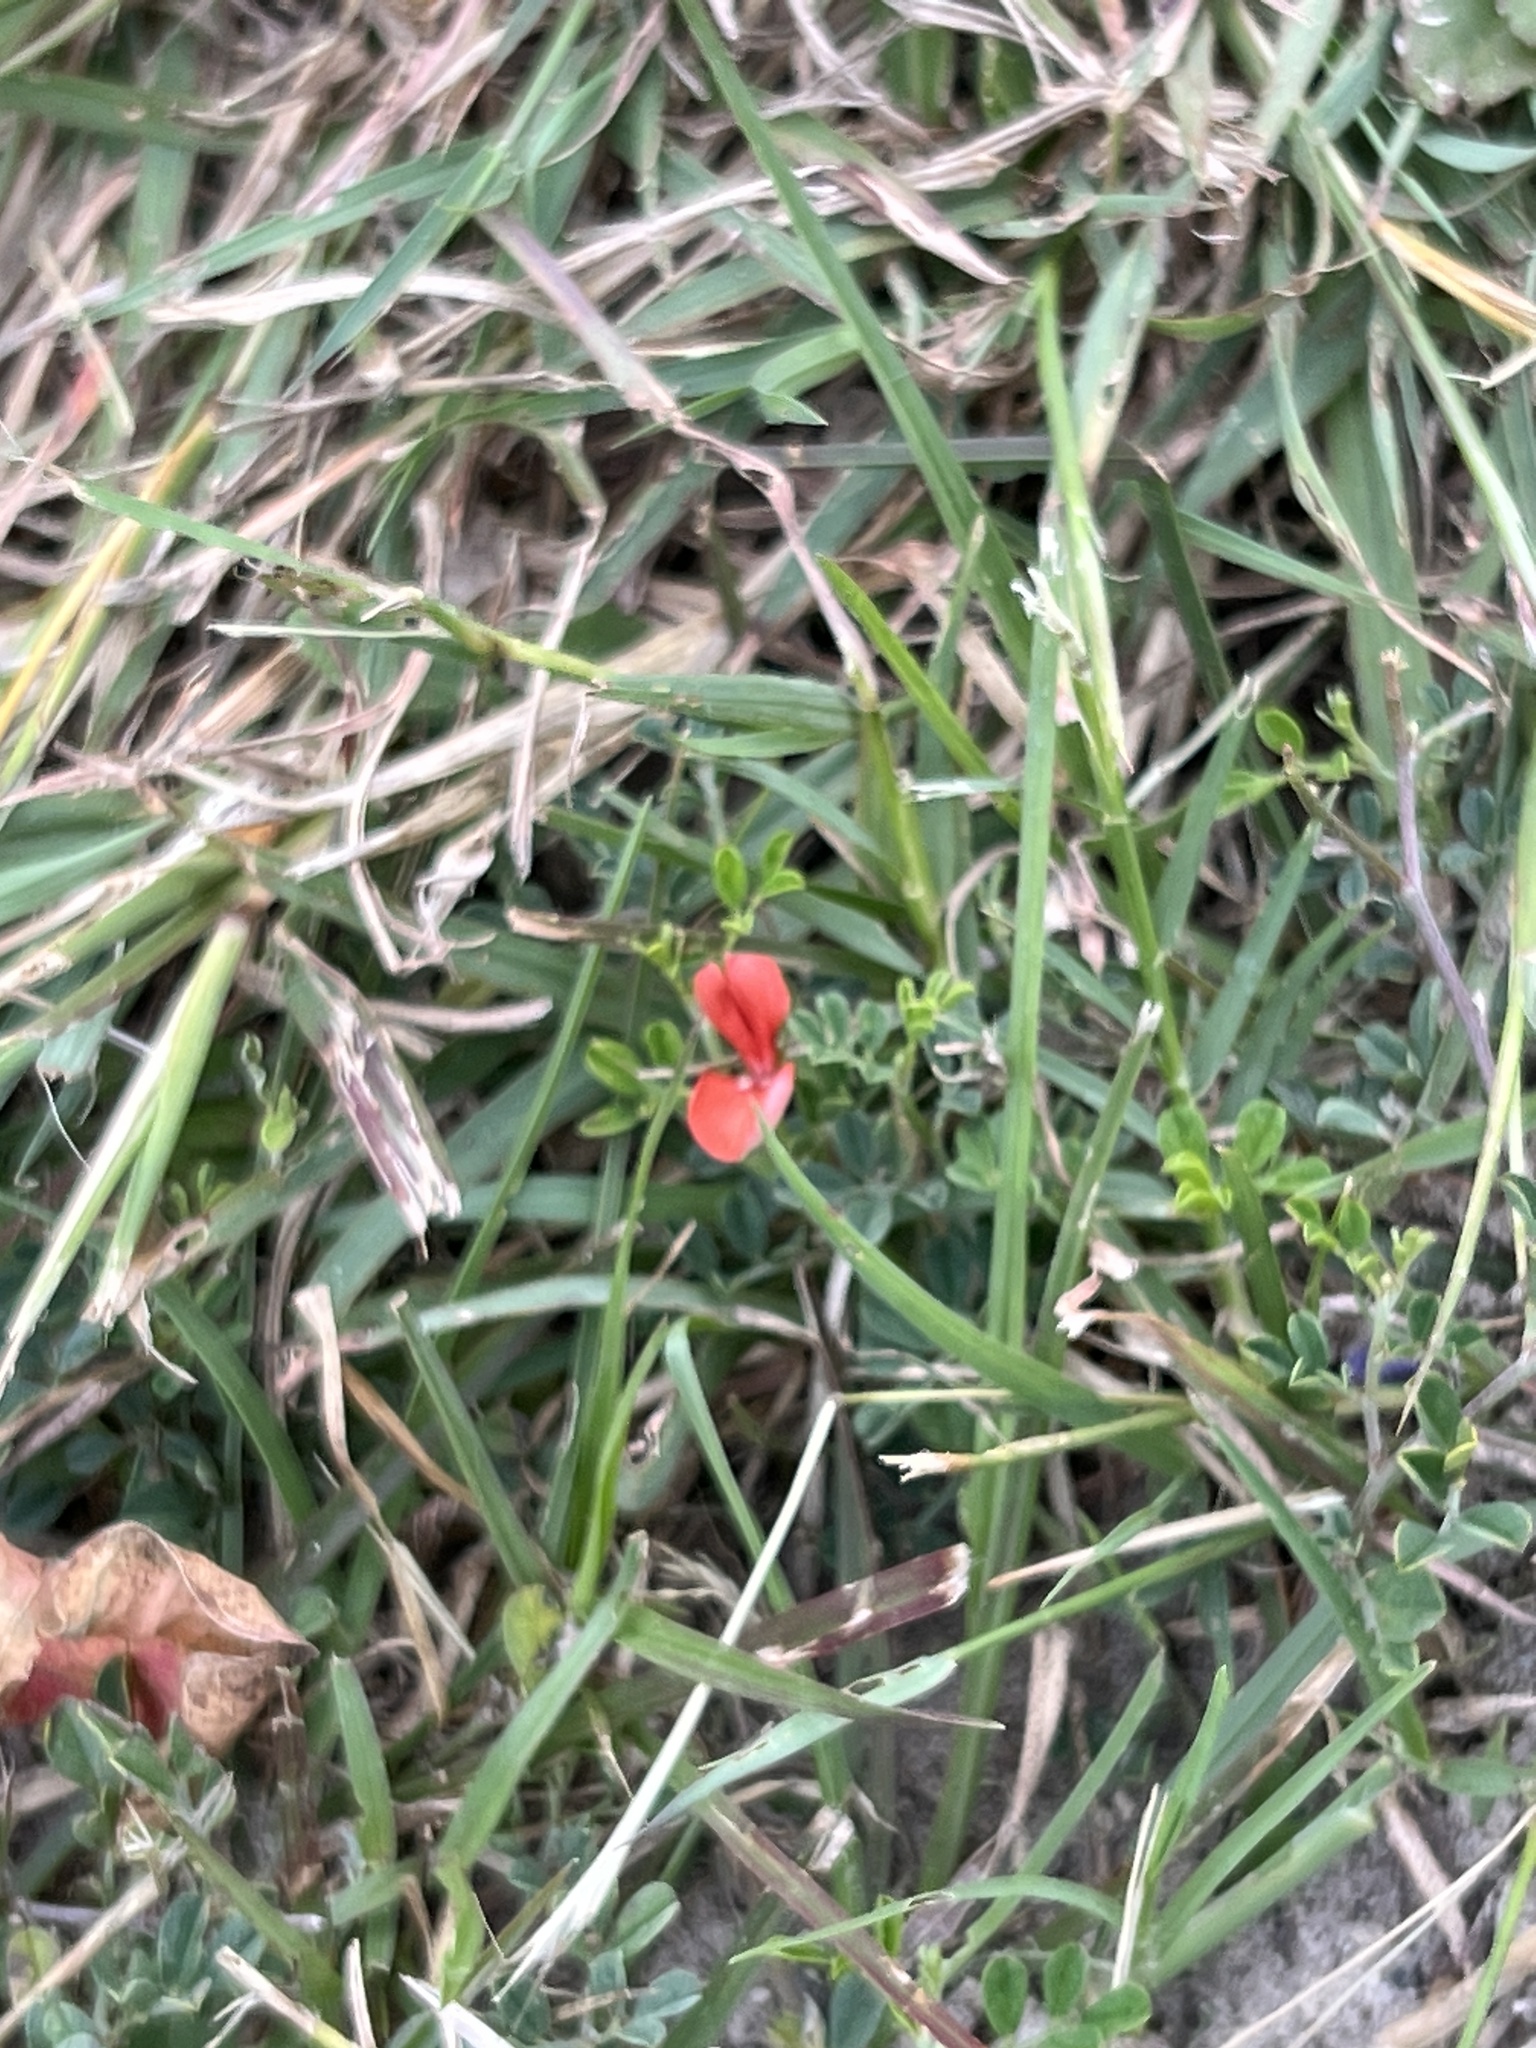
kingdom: Plantae
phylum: Tracheophyta
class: Magnoliopsida
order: Fabales
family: Fabaceae
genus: Indigofera
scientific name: Indigofera miniata
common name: Coast indigo
